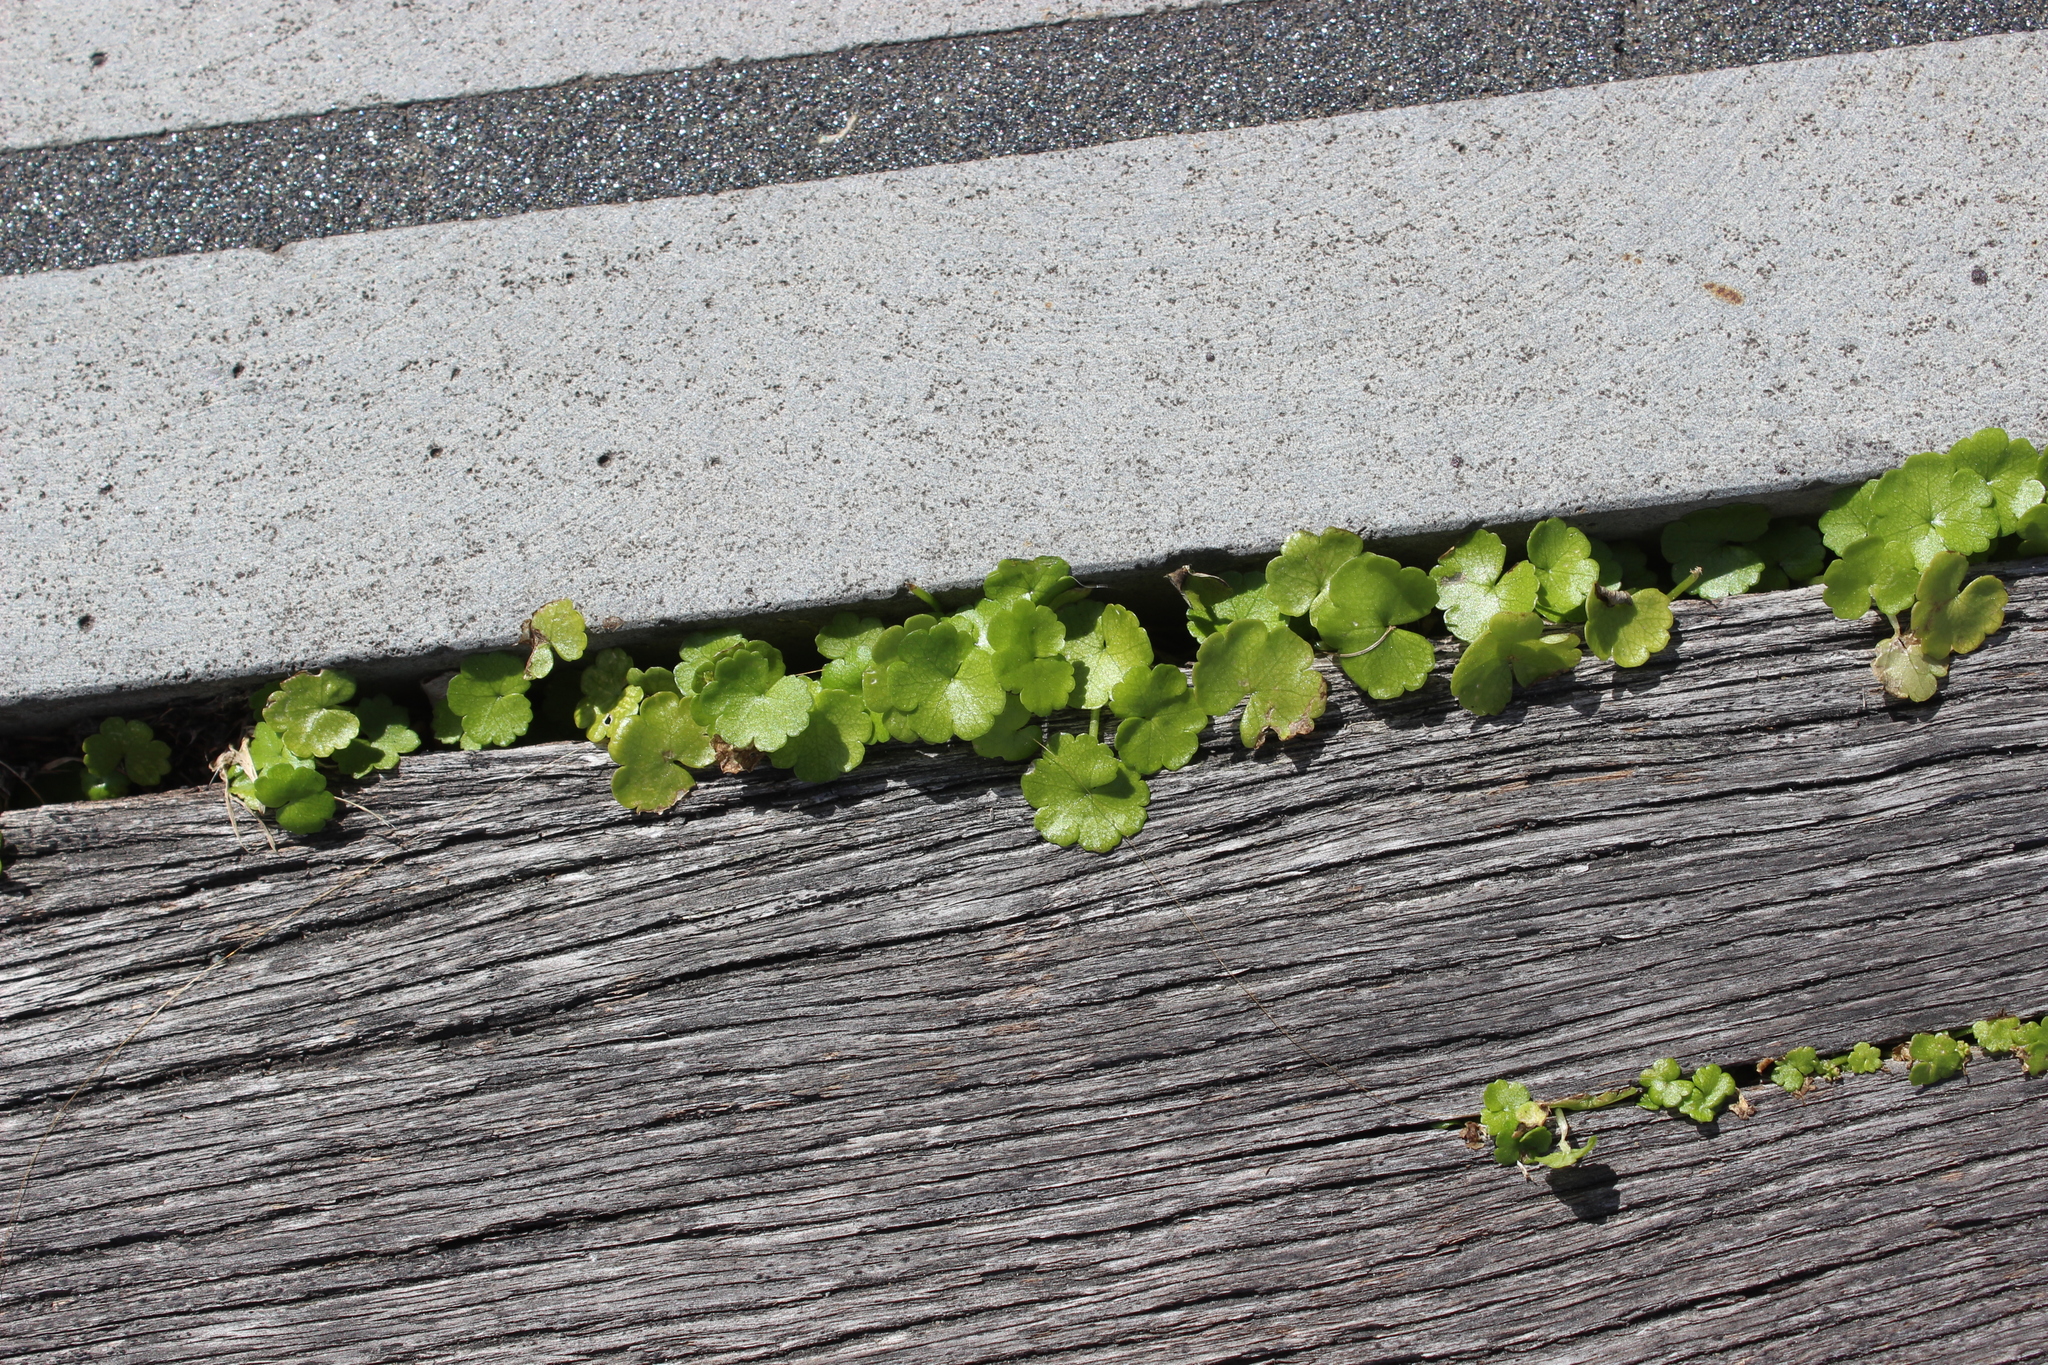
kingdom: Plantae
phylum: Tracheophyta
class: Magnoliopsida
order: Apiales
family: Araliaceae
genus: Hydrocotyle
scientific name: Hydrocotyle heteromeria
